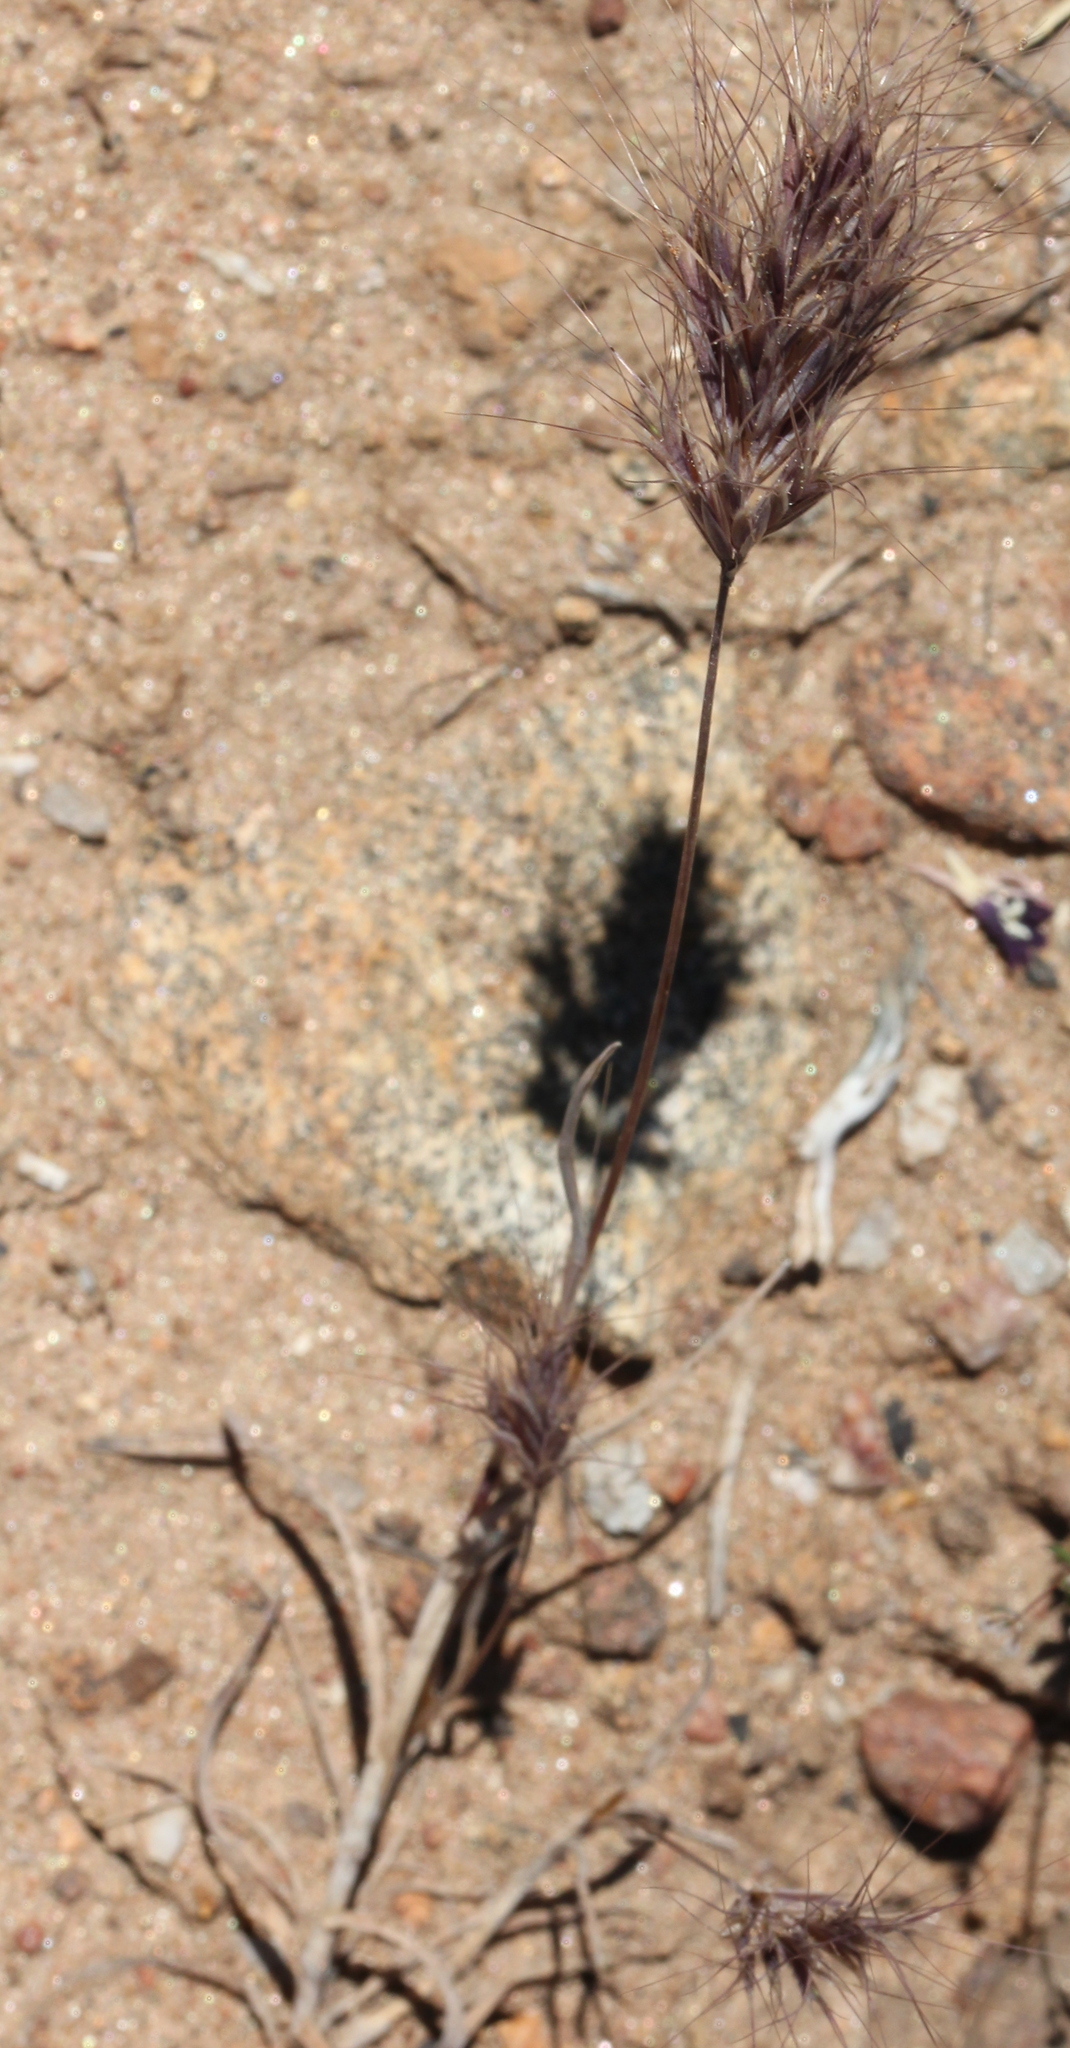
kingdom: Plantae
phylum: Tracheophyta
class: Liliopsida
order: Poales
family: Poaceae
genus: Bromus
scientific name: Bromus rubens
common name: Red brome
